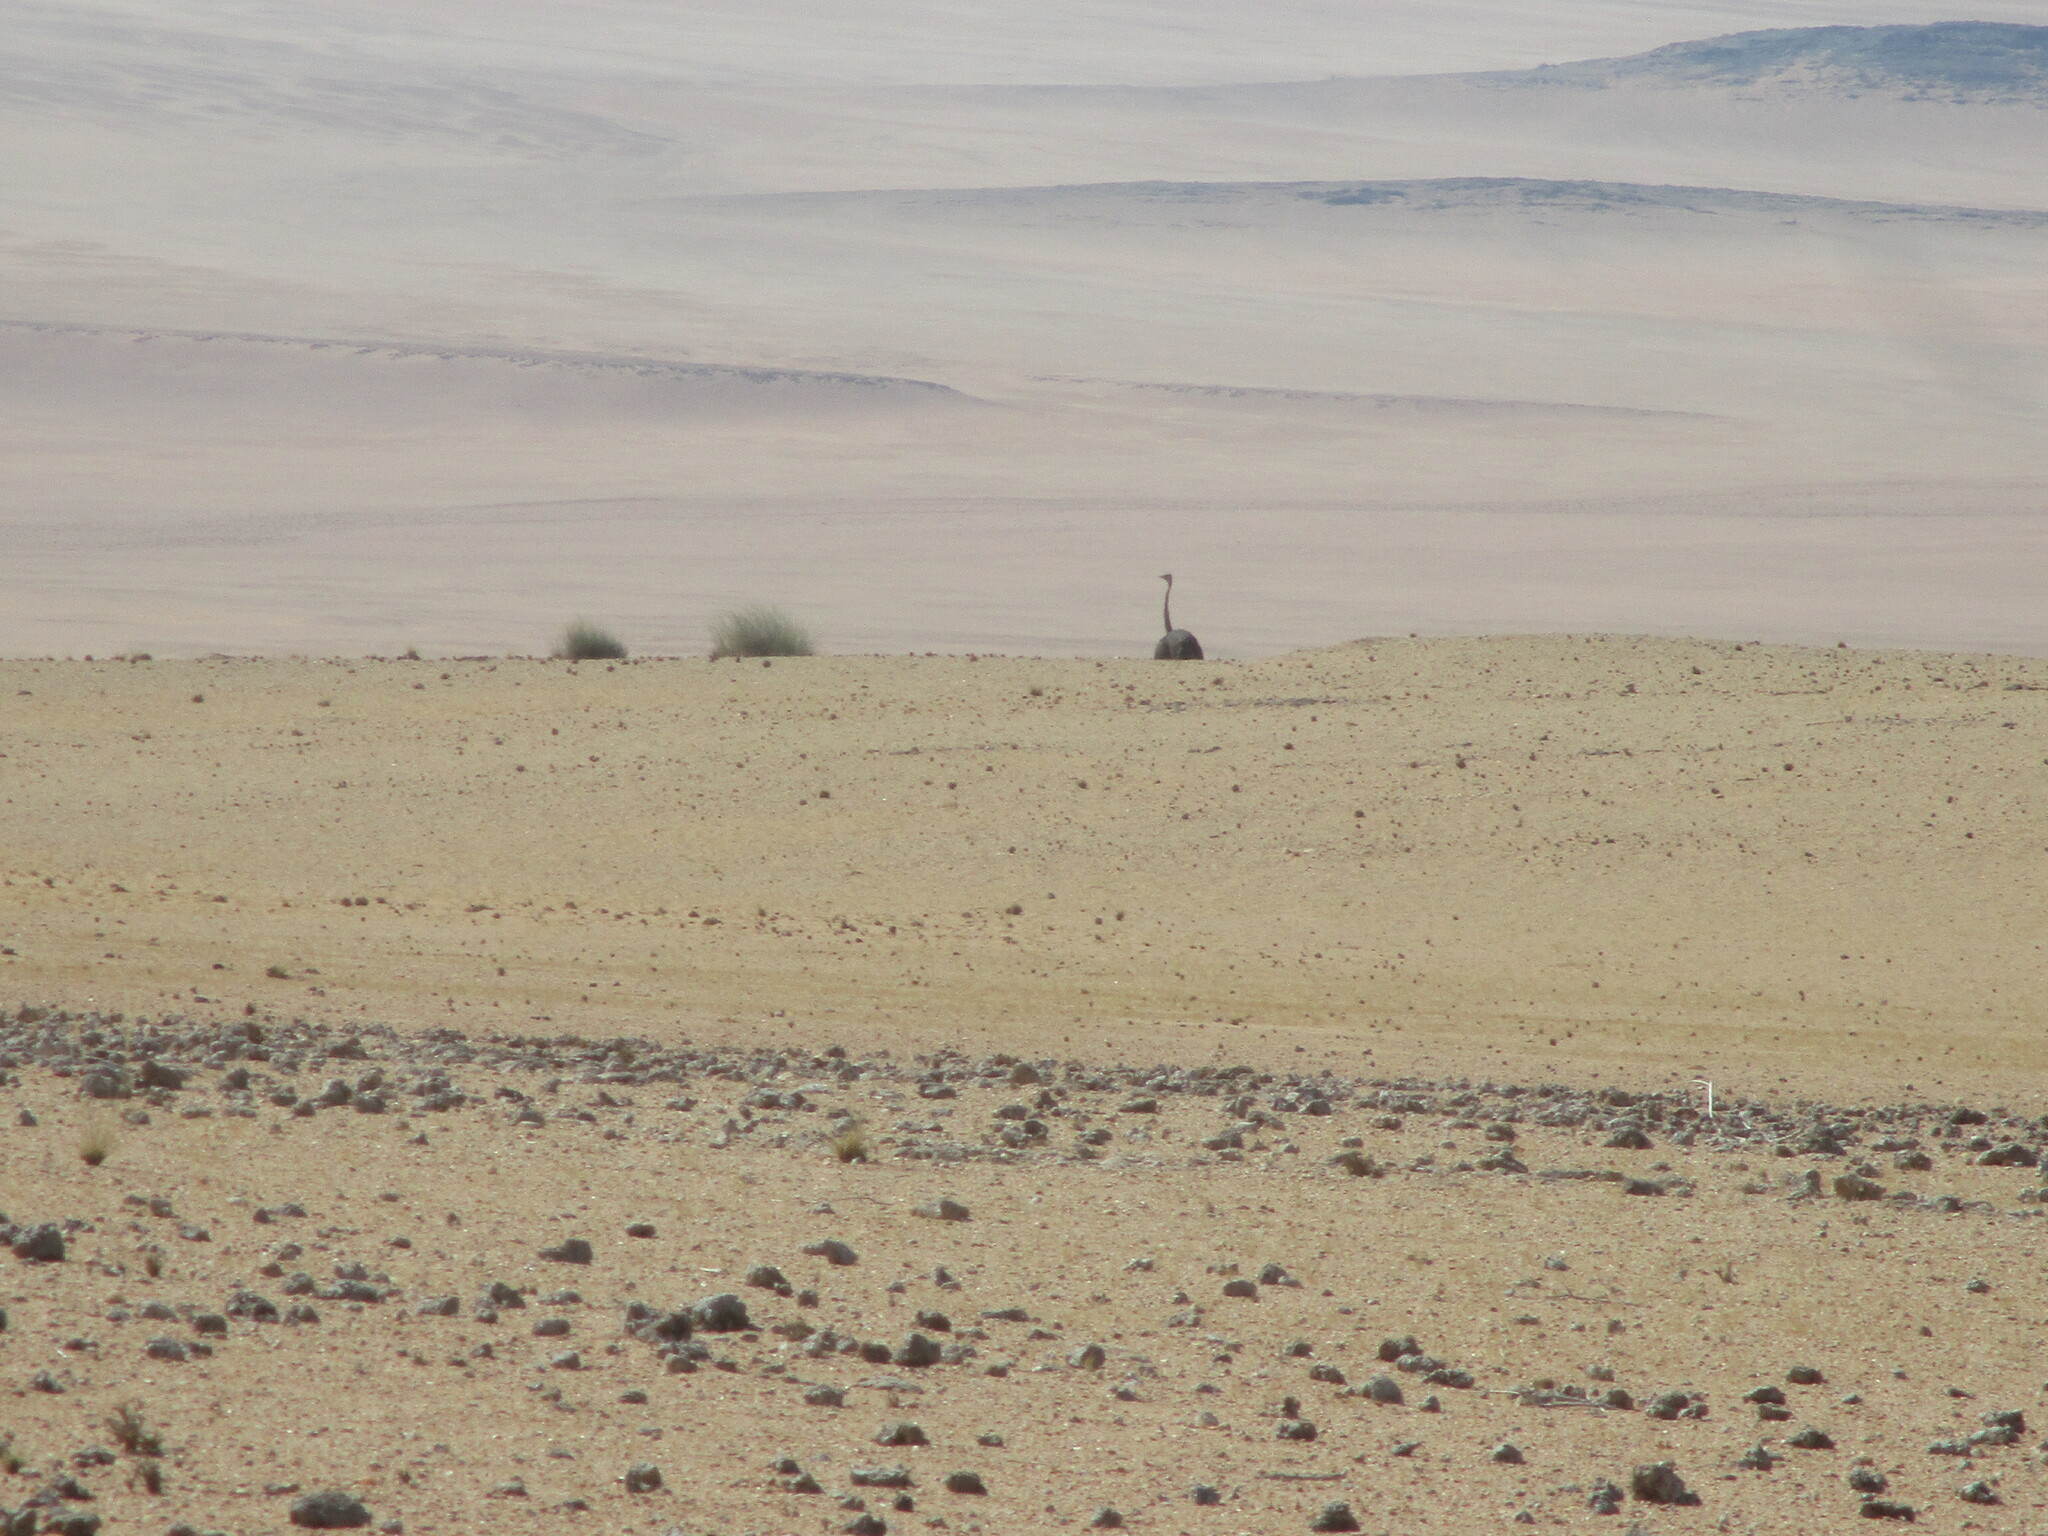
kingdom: Animalia
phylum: Chordata
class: Aves
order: Struthioniformes
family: Struthionidae
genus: Struthio
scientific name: Struthio camelus
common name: Common ostrich
